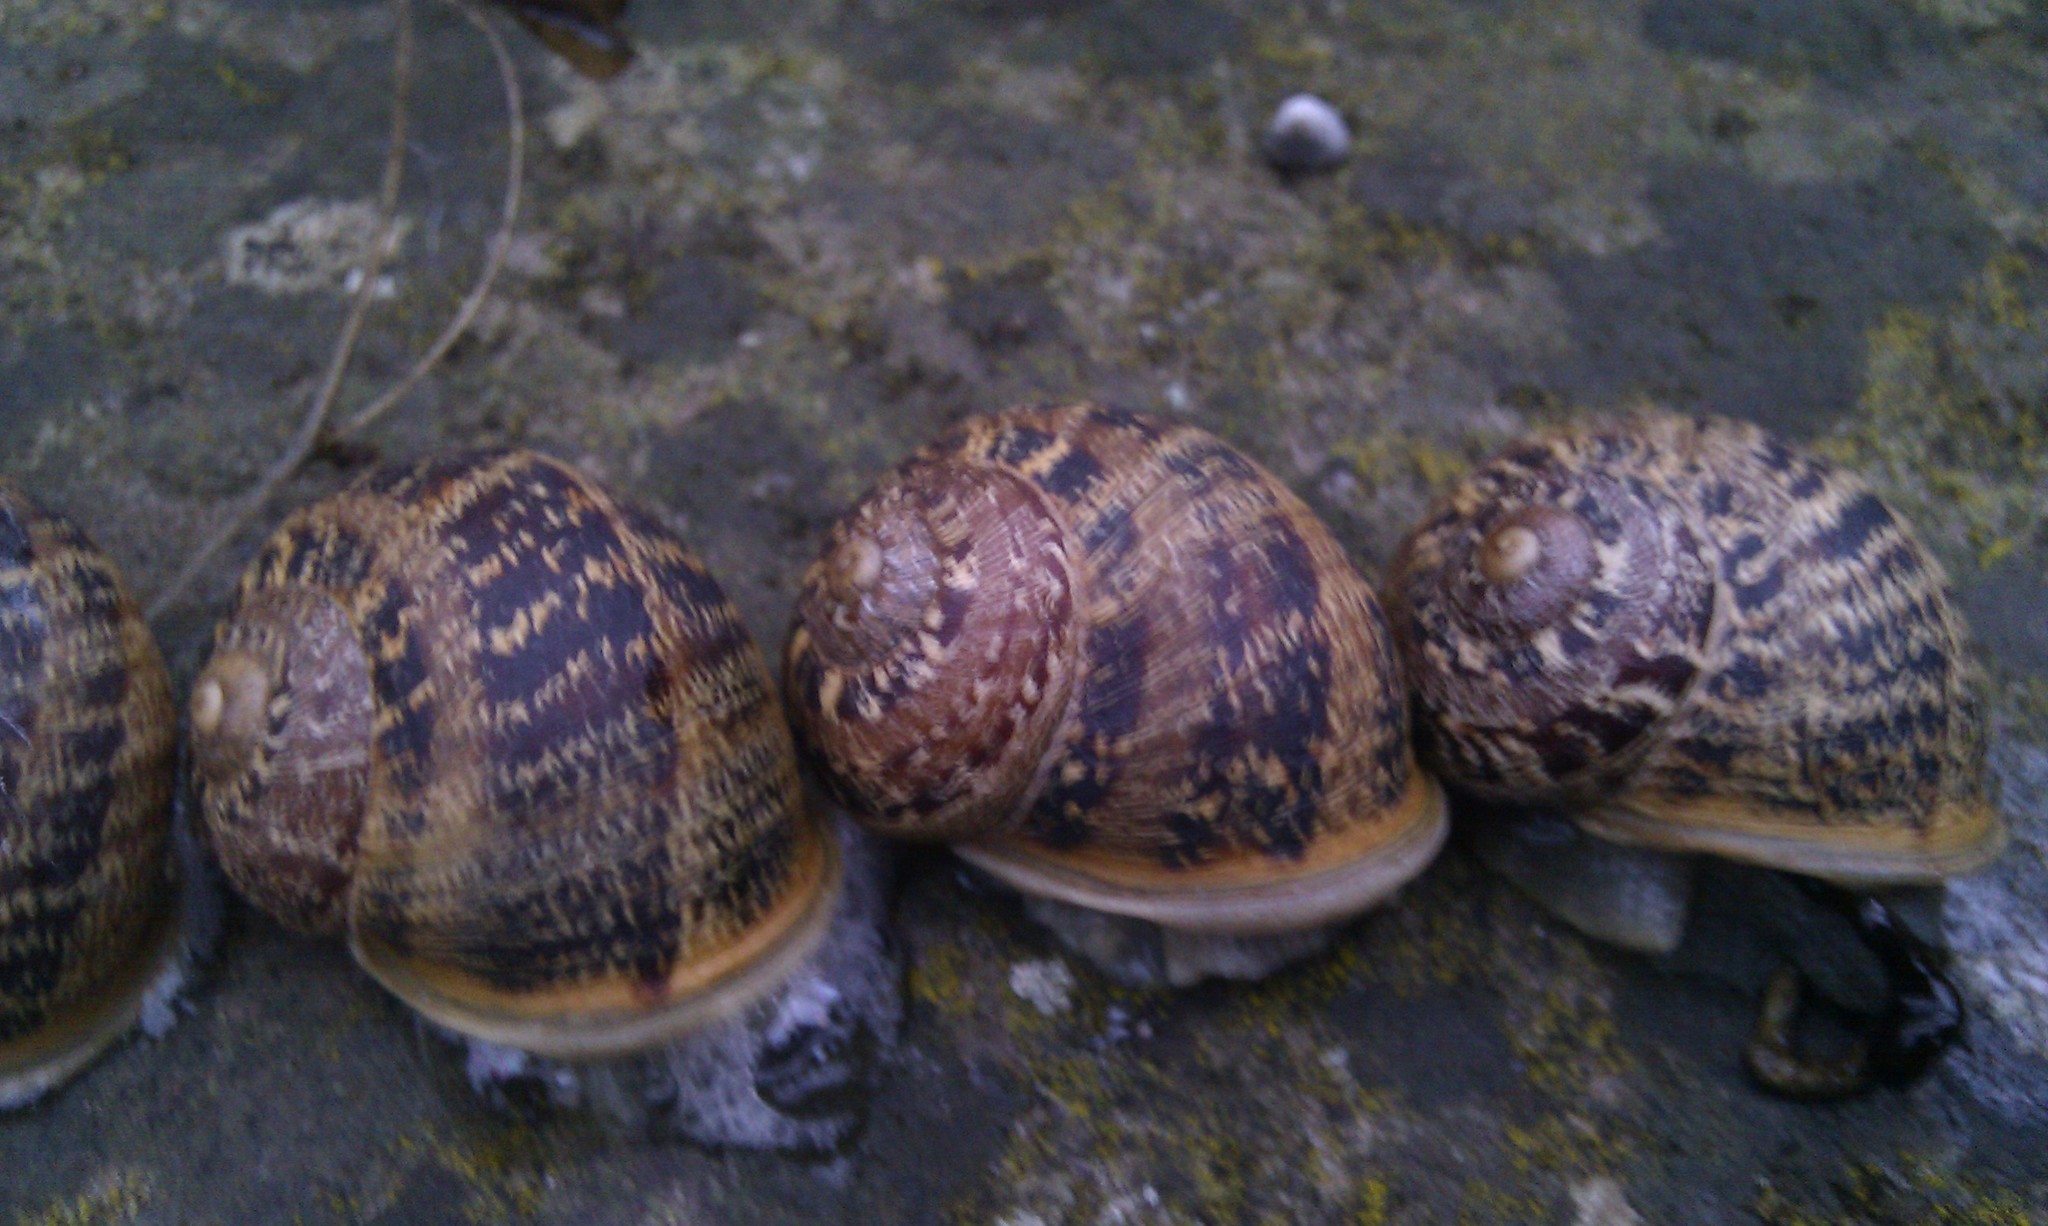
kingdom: Animalia
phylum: Mollusca
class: Gastropoda
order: Stylommatophora
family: Helicidae
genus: Cornu
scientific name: Cornu aspersum
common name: Brown garden snail
